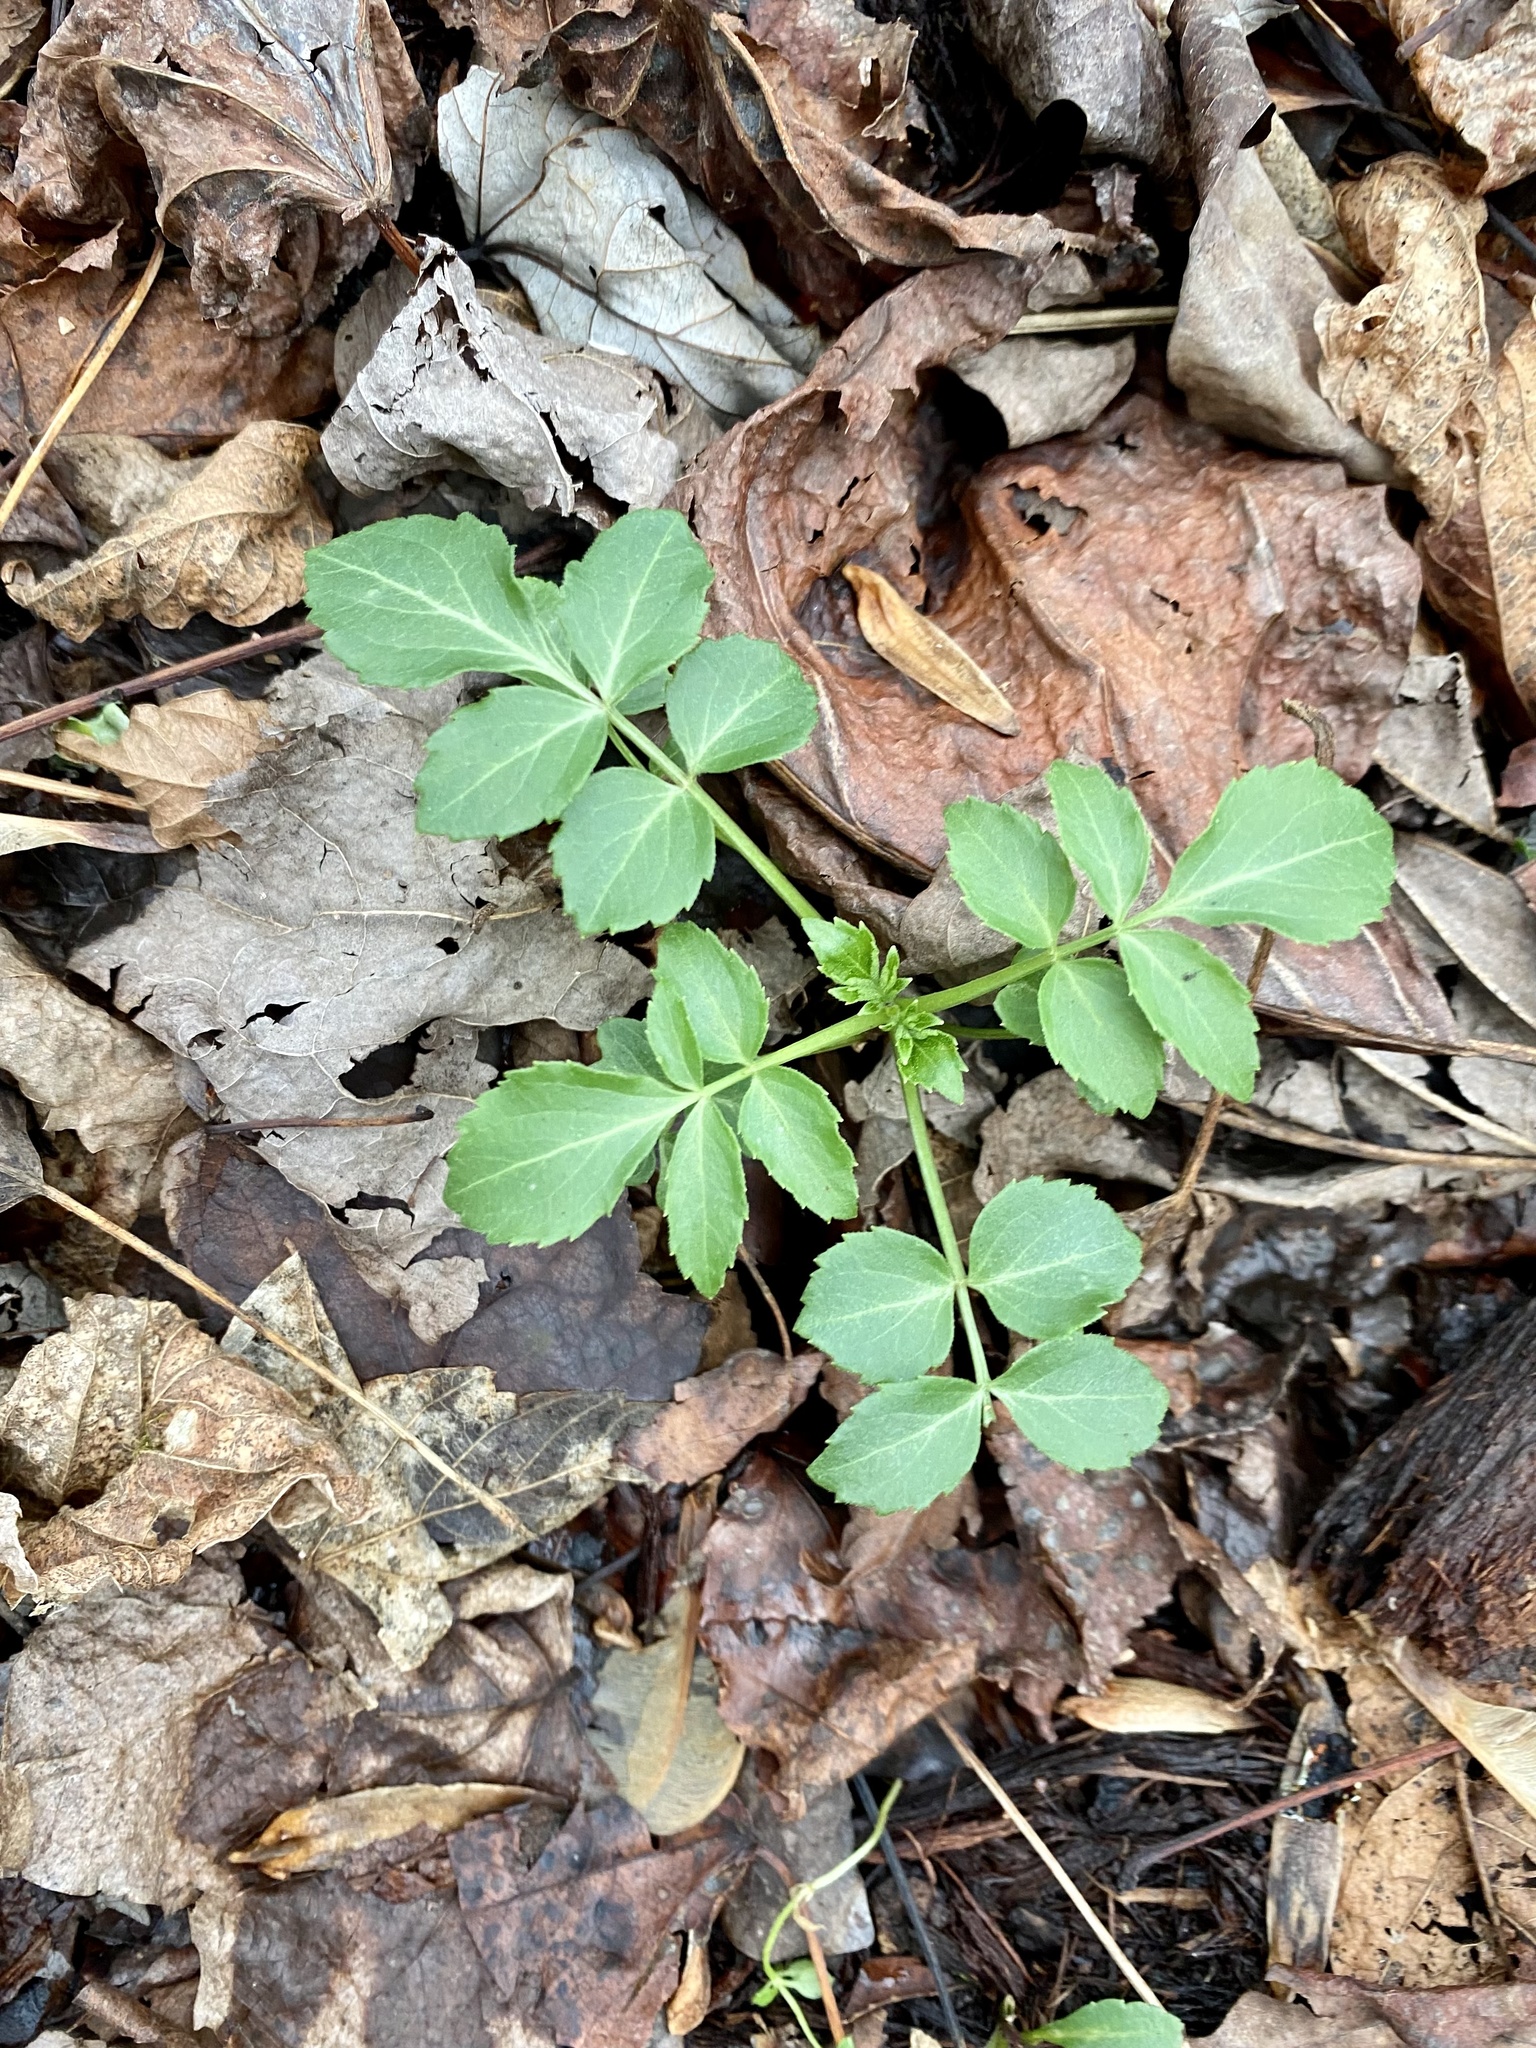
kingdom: Plantae
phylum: Tracheophyta
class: Magnoliopsida
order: Dipsacales
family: Viburnaceae
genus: Sambucus
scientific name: Sambucus canadensis
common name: American elder
